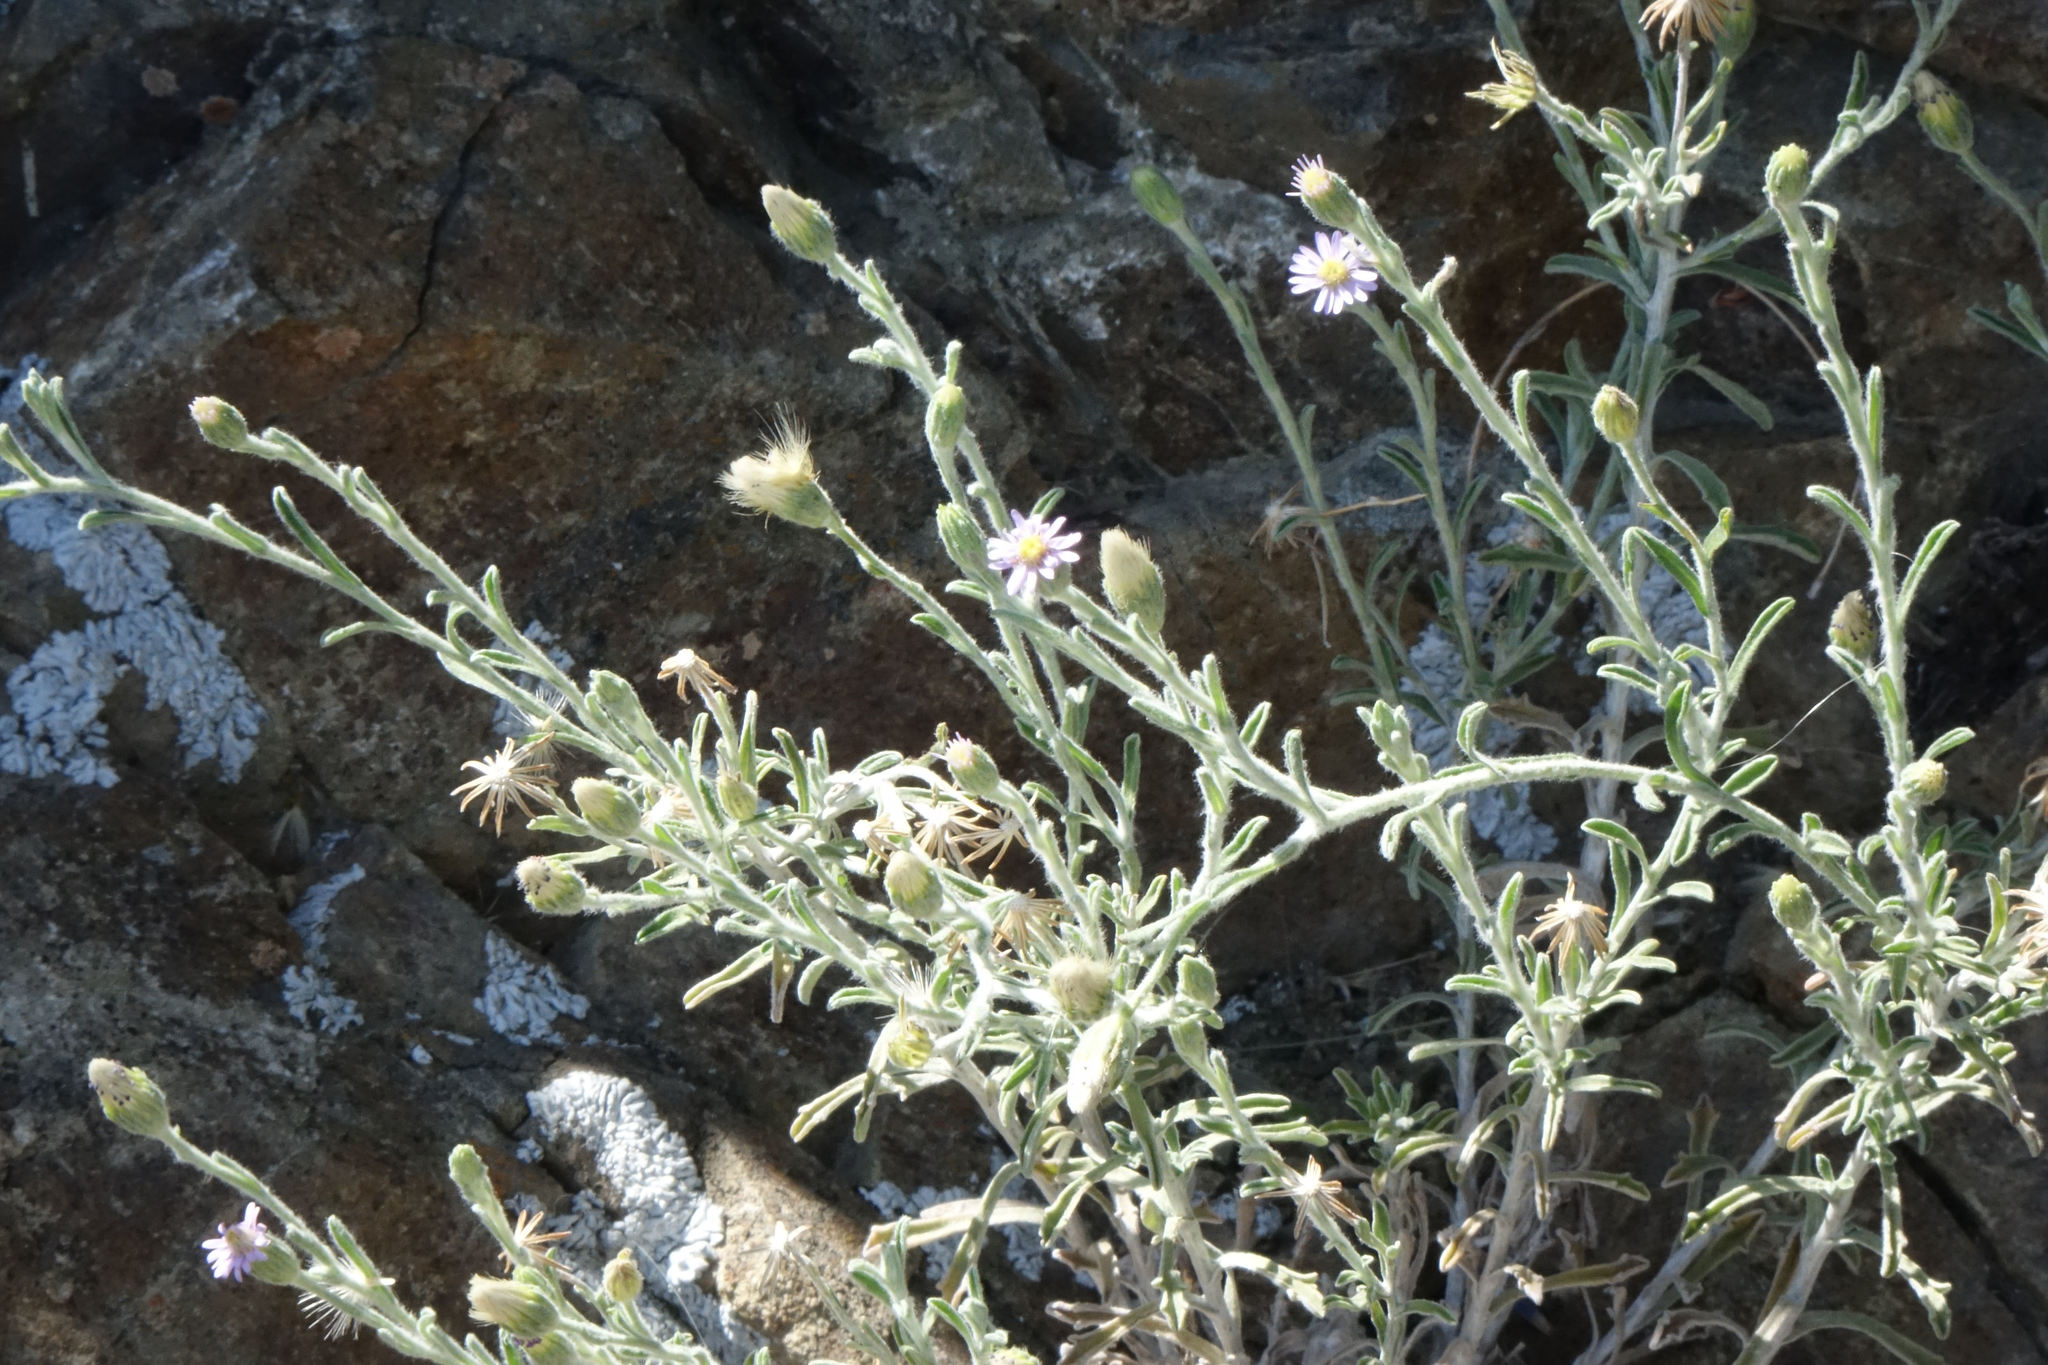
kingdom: Plantae
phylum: Tracheophyta
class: Magnoliopsida
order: Asterales
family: Asteraceae
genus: Vittadinia
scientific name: Vittadinia gracilis
